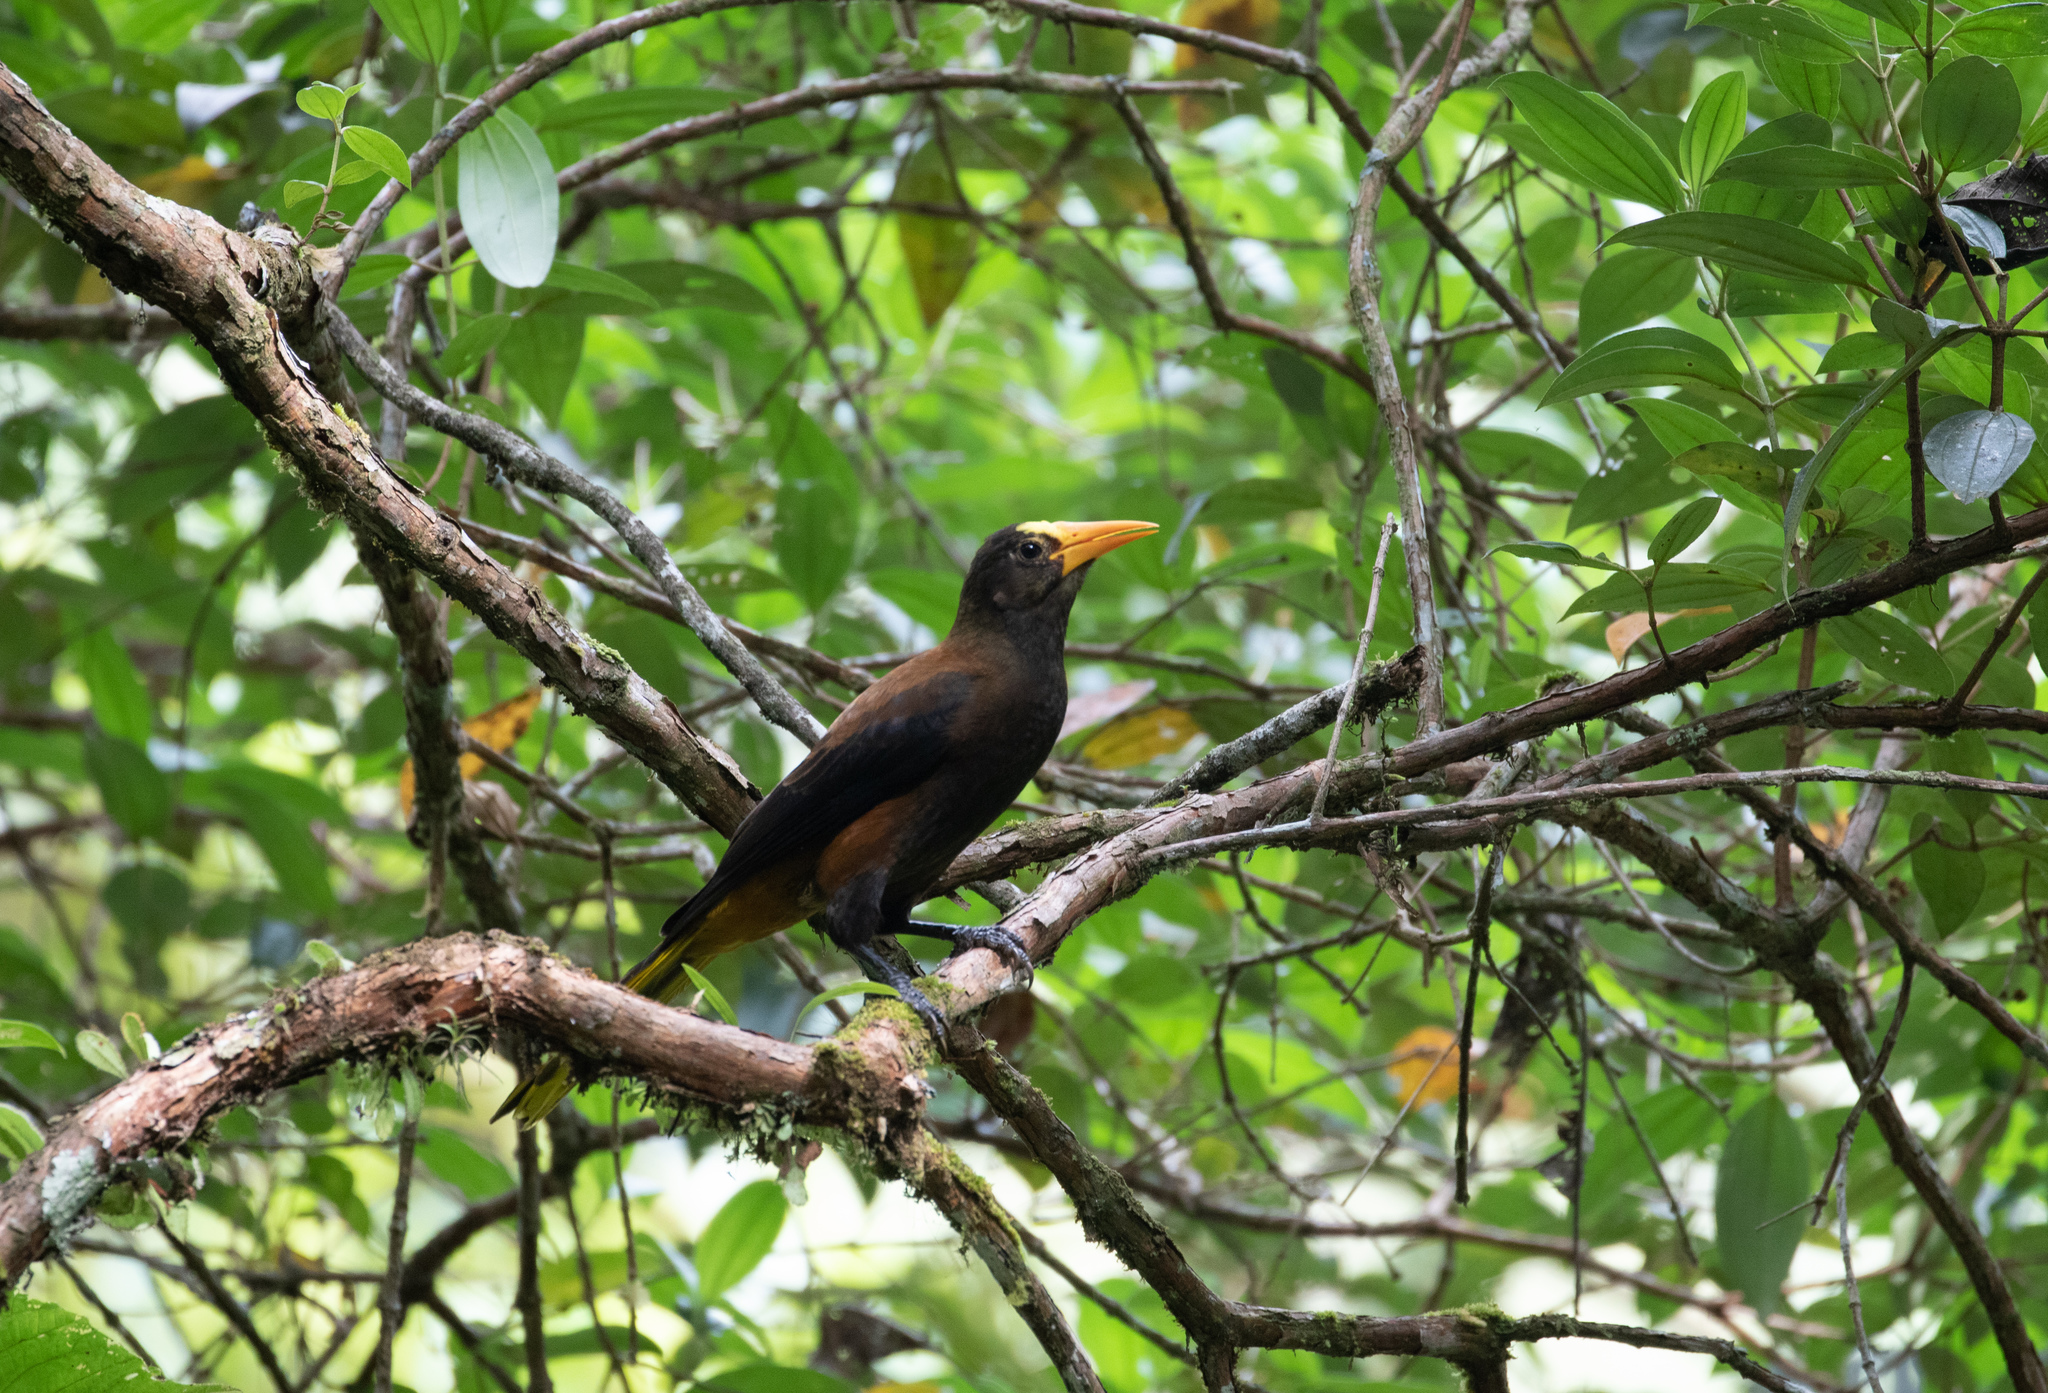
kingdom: Animalia
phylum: Chordata
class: Aves
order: Passeriformes
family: Icteridae
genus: Psarocolius
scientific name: Psarocolius angustifrons
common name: Russet-backed oropendola
